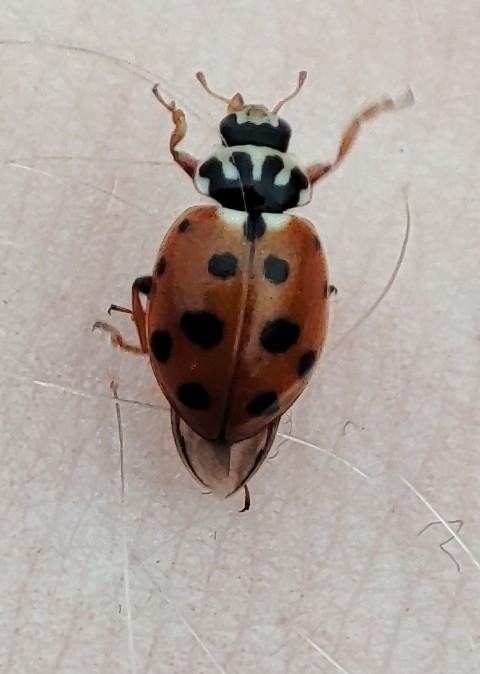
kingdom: Animalia
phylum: Arthropoda
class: Insecta
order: Coleoptera
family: Coccinellidae
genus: Hippodamia
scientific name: Hippodamia variegata
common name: Ladybird beetle
